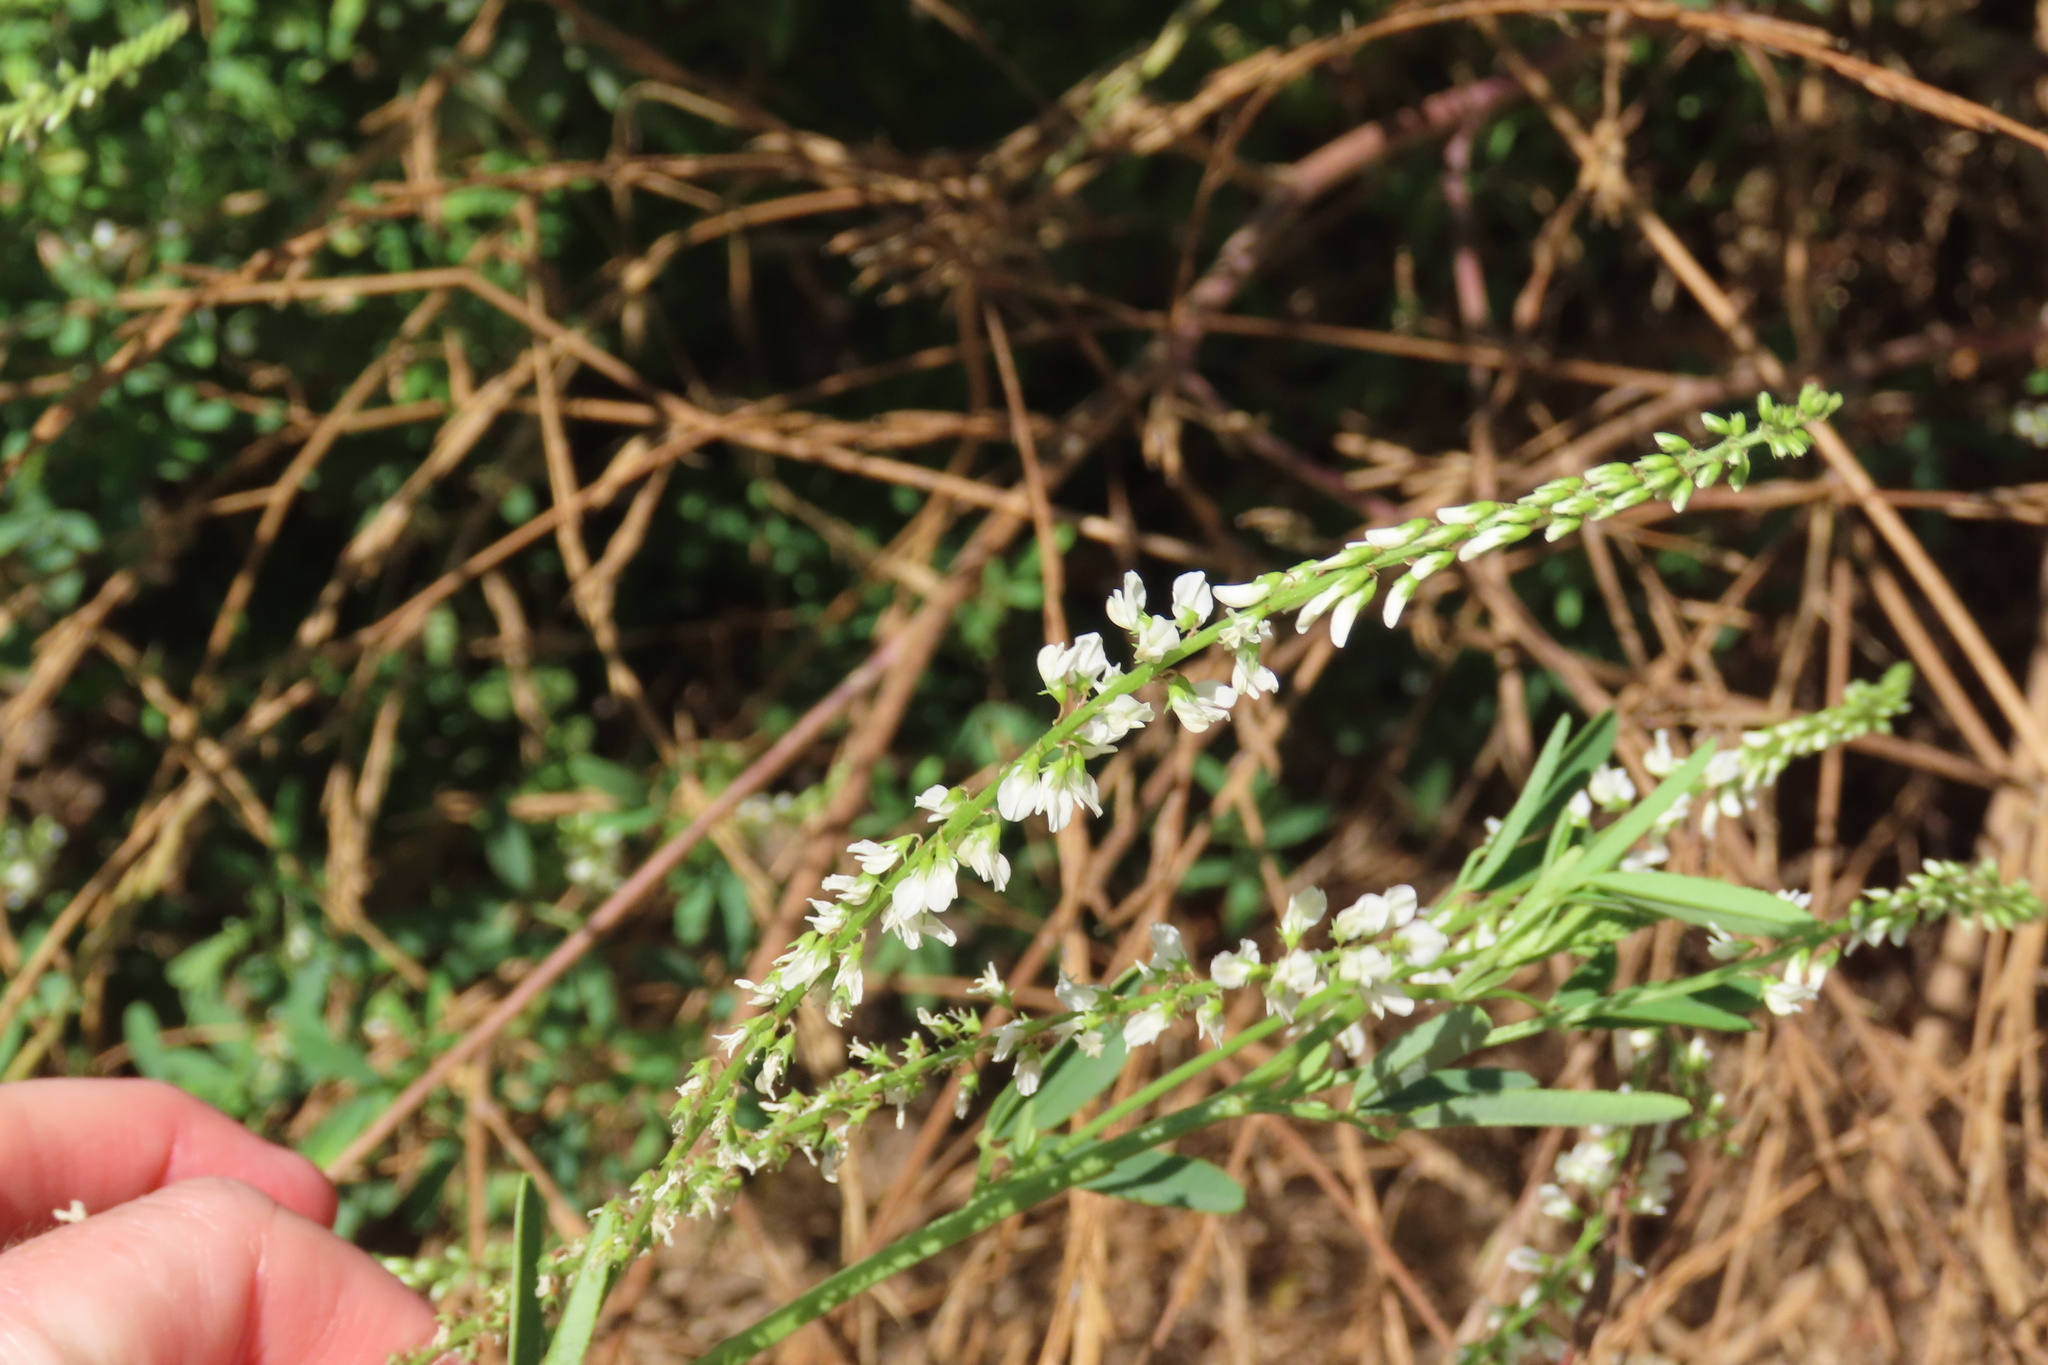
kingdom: Plantae
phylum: Tracheophyta
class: Magnoliopsida
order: Fabales
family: Fabaceae
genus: Melilotus
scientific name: Melilotus albus
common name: White melilot
